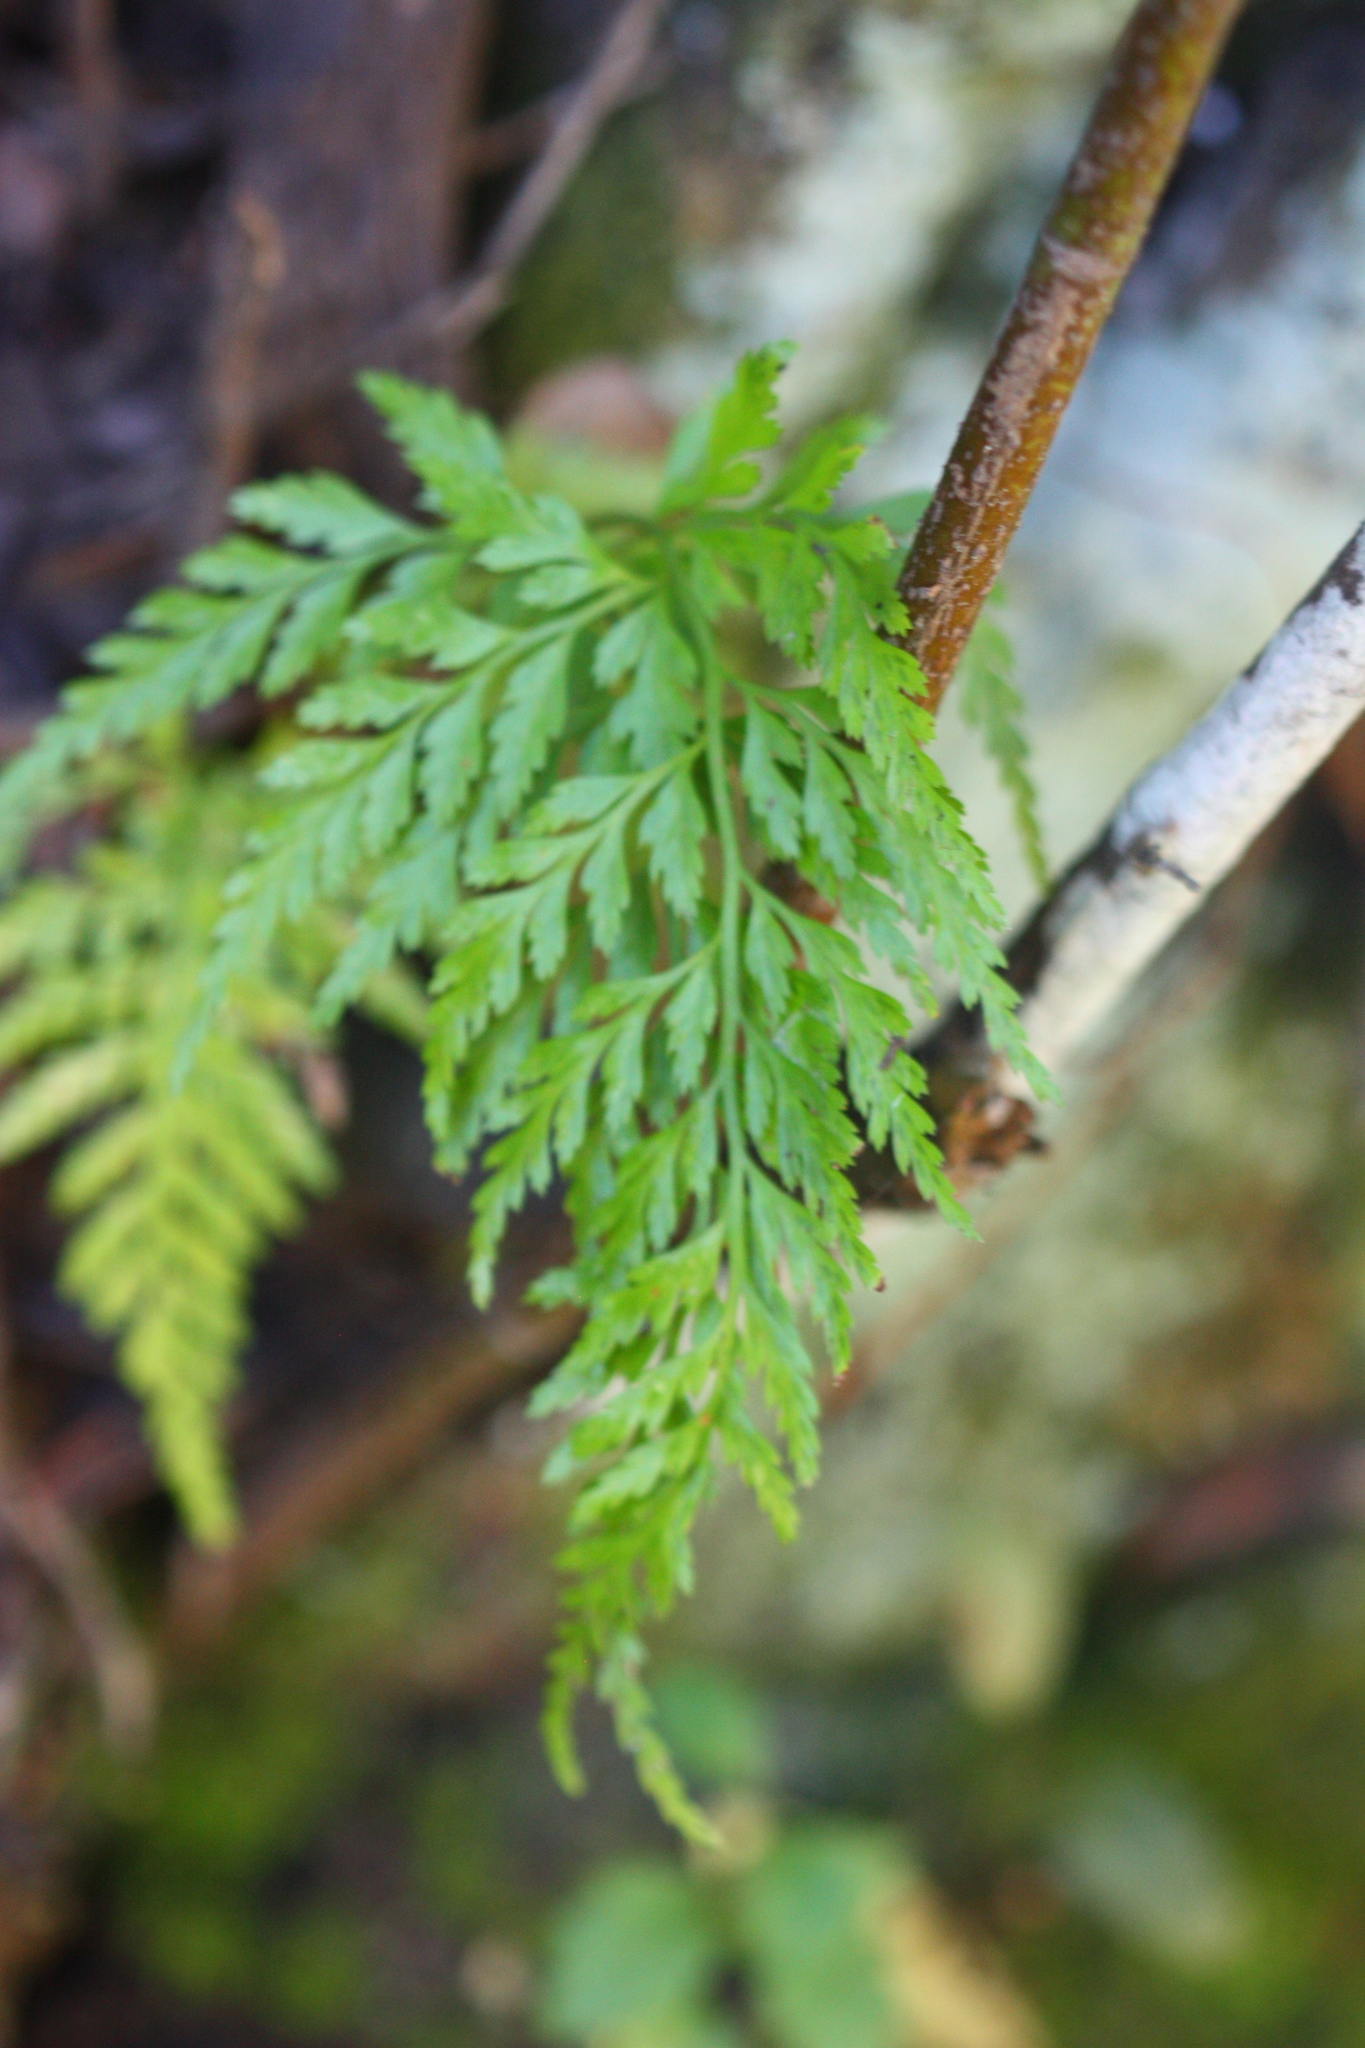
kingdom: Plantae
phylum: Tracheophyta
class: Polypodiopsida
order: Polypodiales
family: Aspleniaceae
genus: Asplenium
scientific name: Asplenium onopteris
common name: Irish spleenwort
